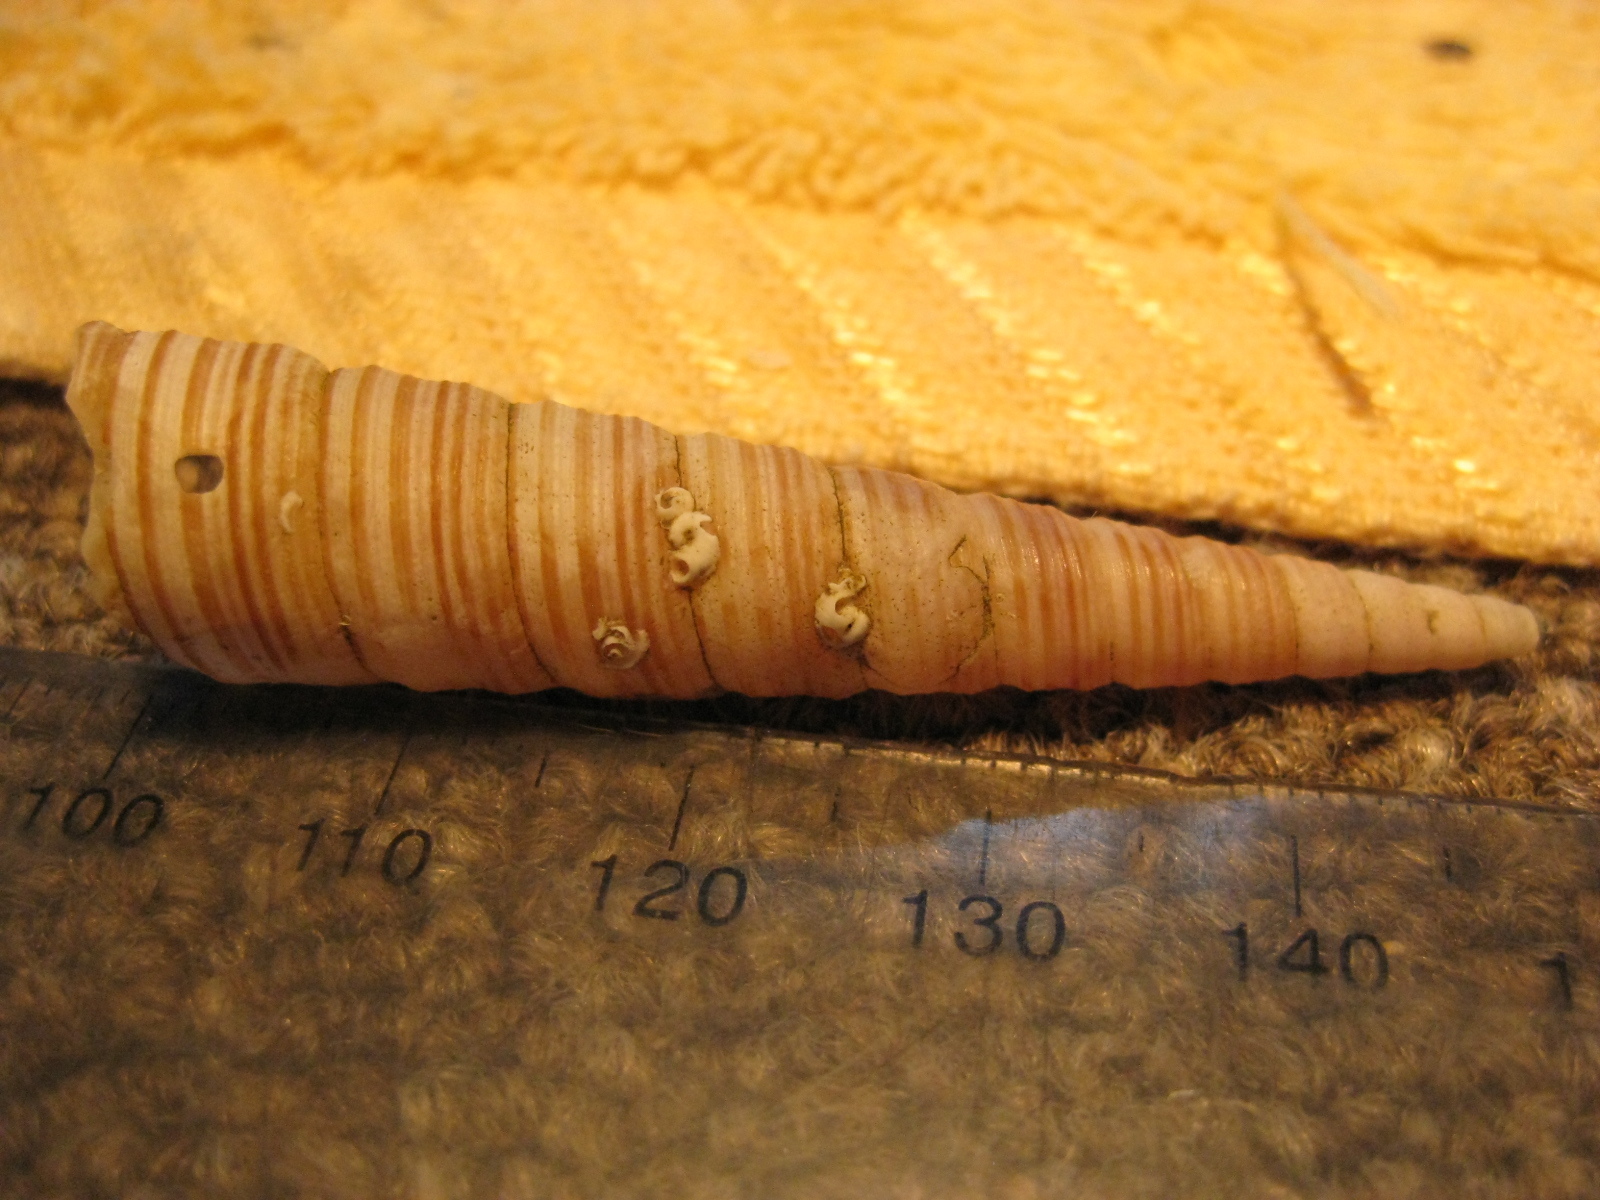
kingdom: Animalia
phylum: Mollusca
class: Gastropoda
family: Turritellidae
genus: Zeacolpus
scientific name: Zeacolpus vittatus
